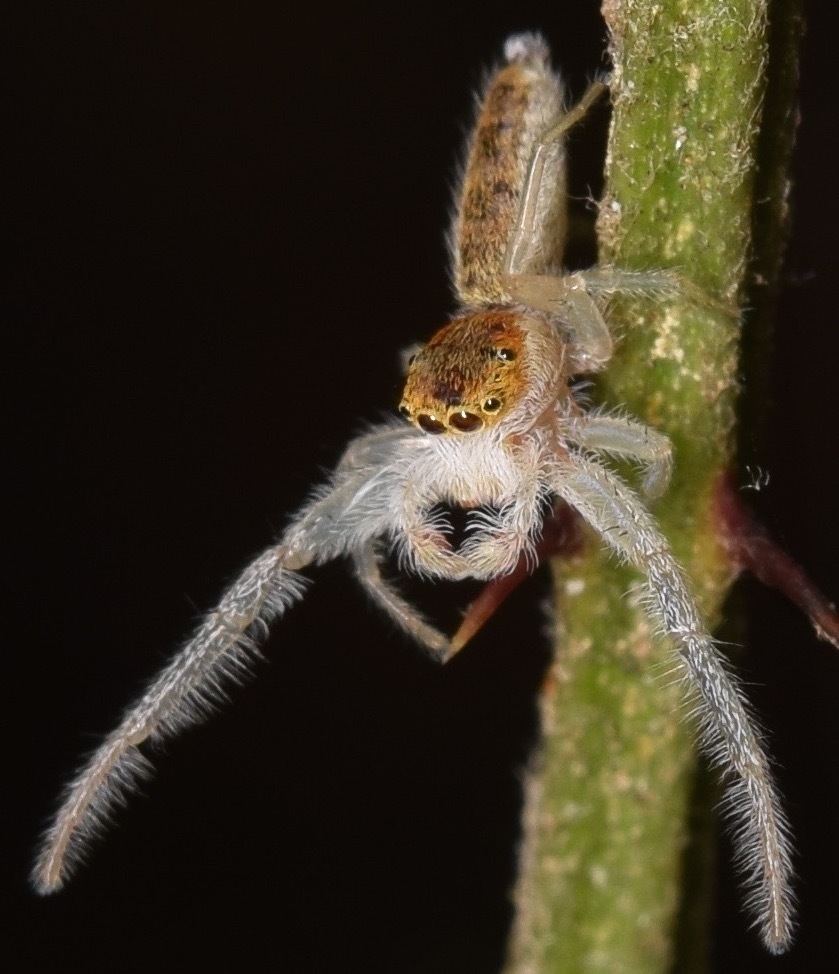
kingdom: Animalia
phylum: Arthropoda
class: Arachnida
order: Araneae
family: Salticidae
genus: Hentzia
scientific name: Hentzia mitrata
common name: White-jawed jumping spider
